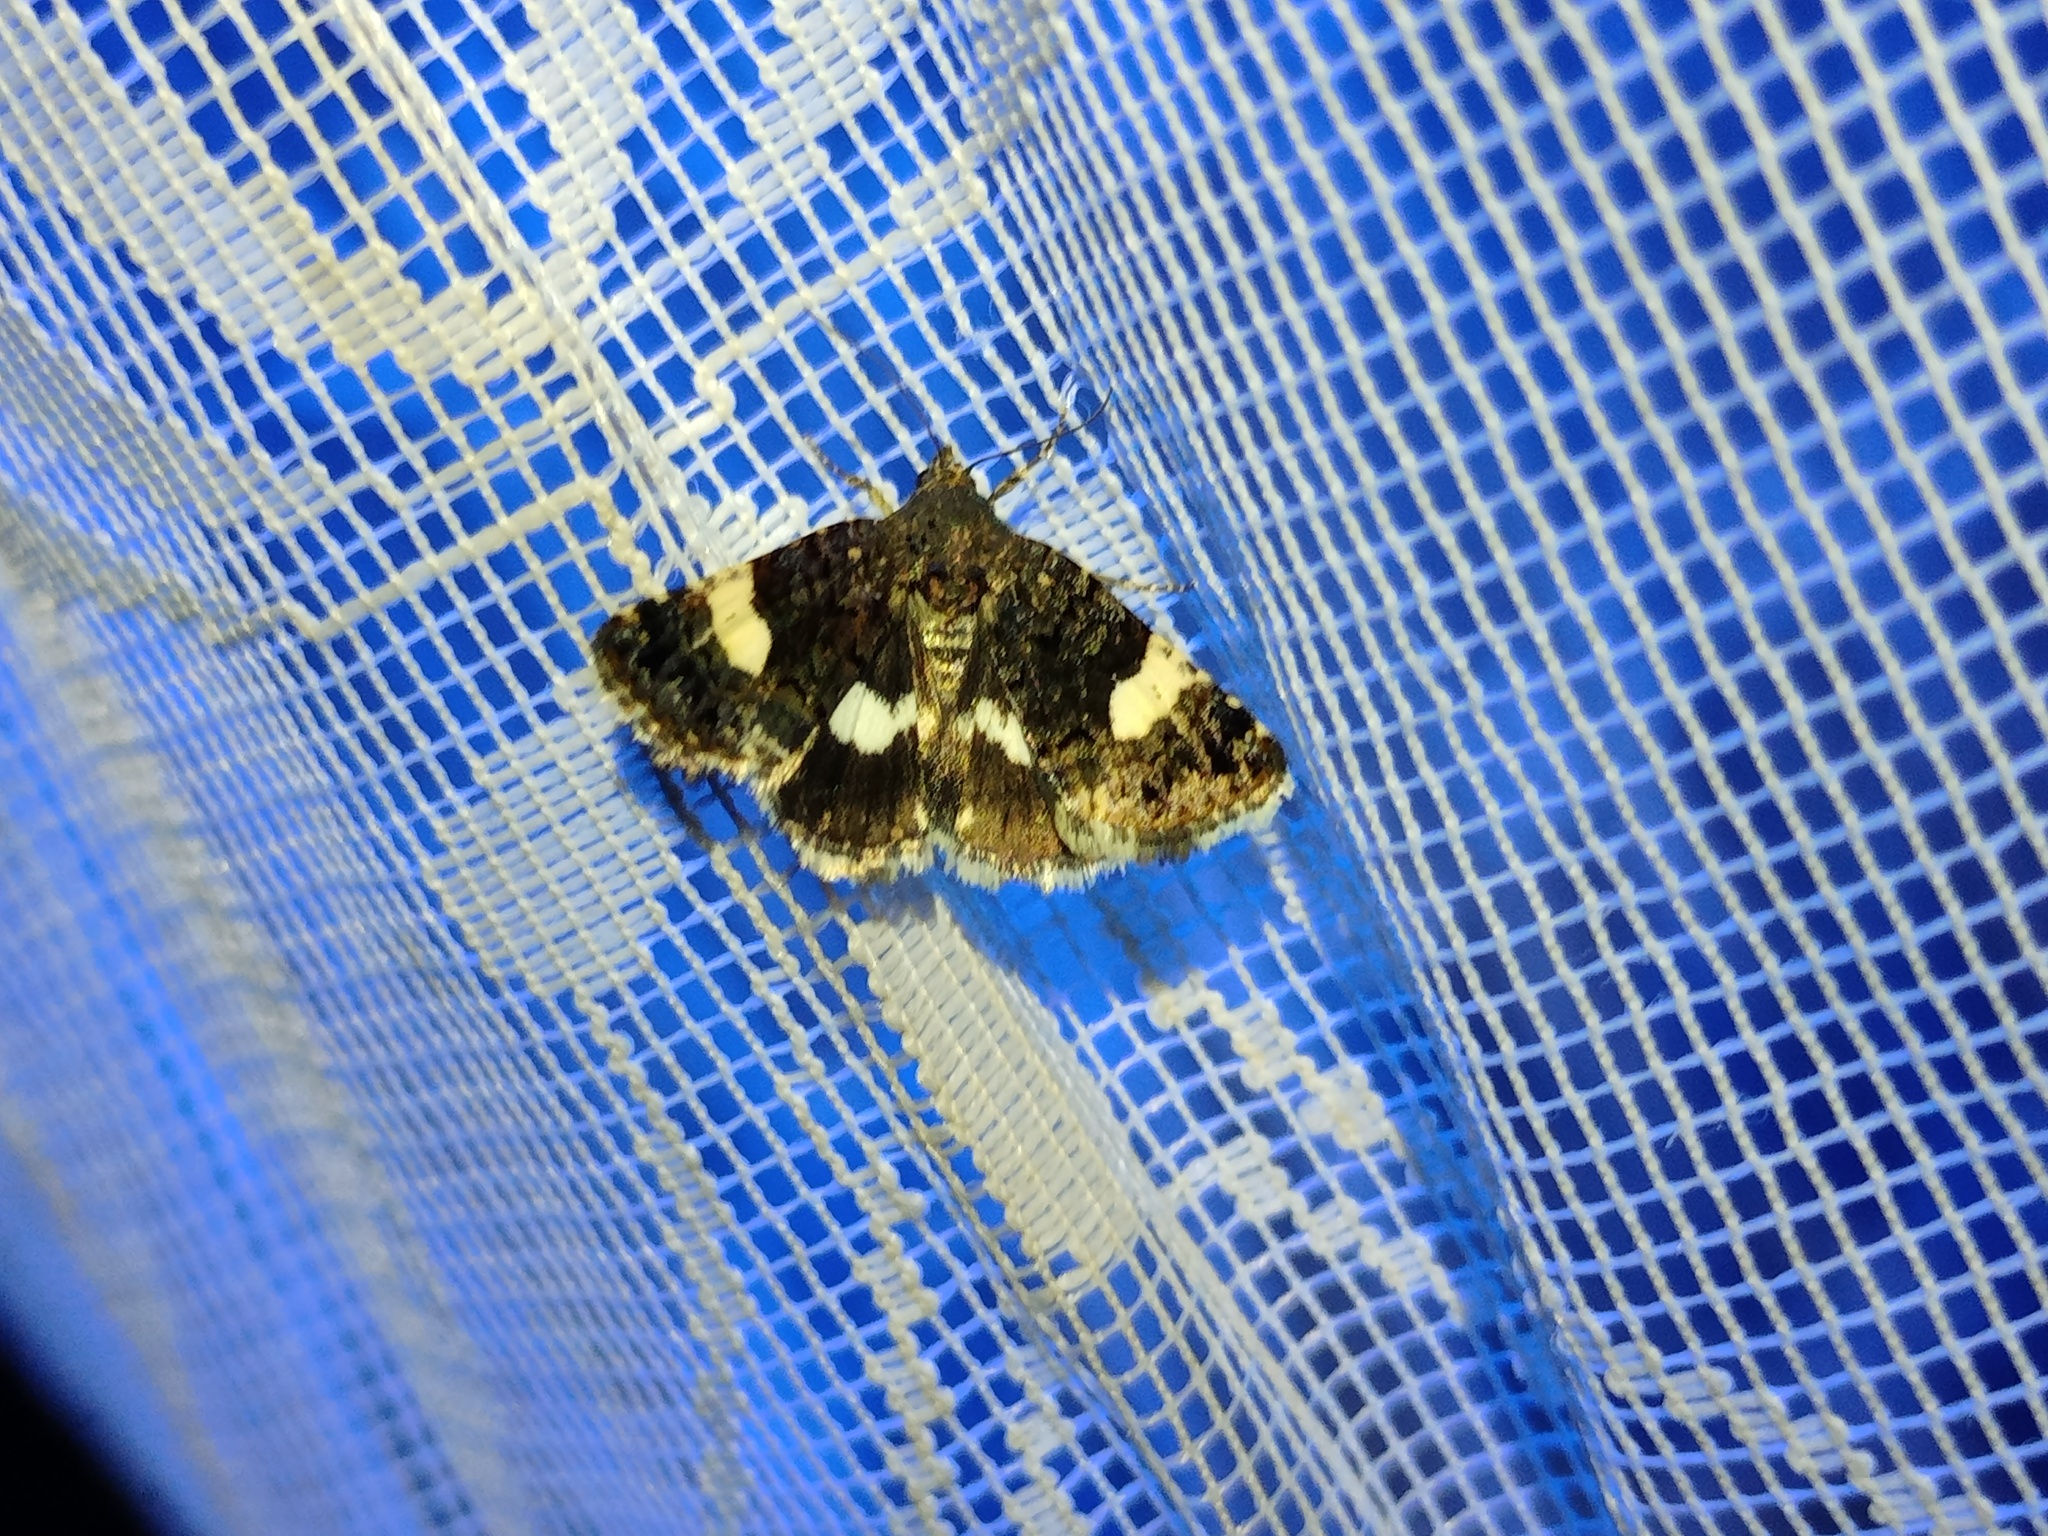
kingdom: Animalia
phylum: Arthropoda
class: Insecta
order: Lepidoptera
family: Erebidae
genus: Tyta
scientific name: Tyta luctuosa
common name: Four-spotted
